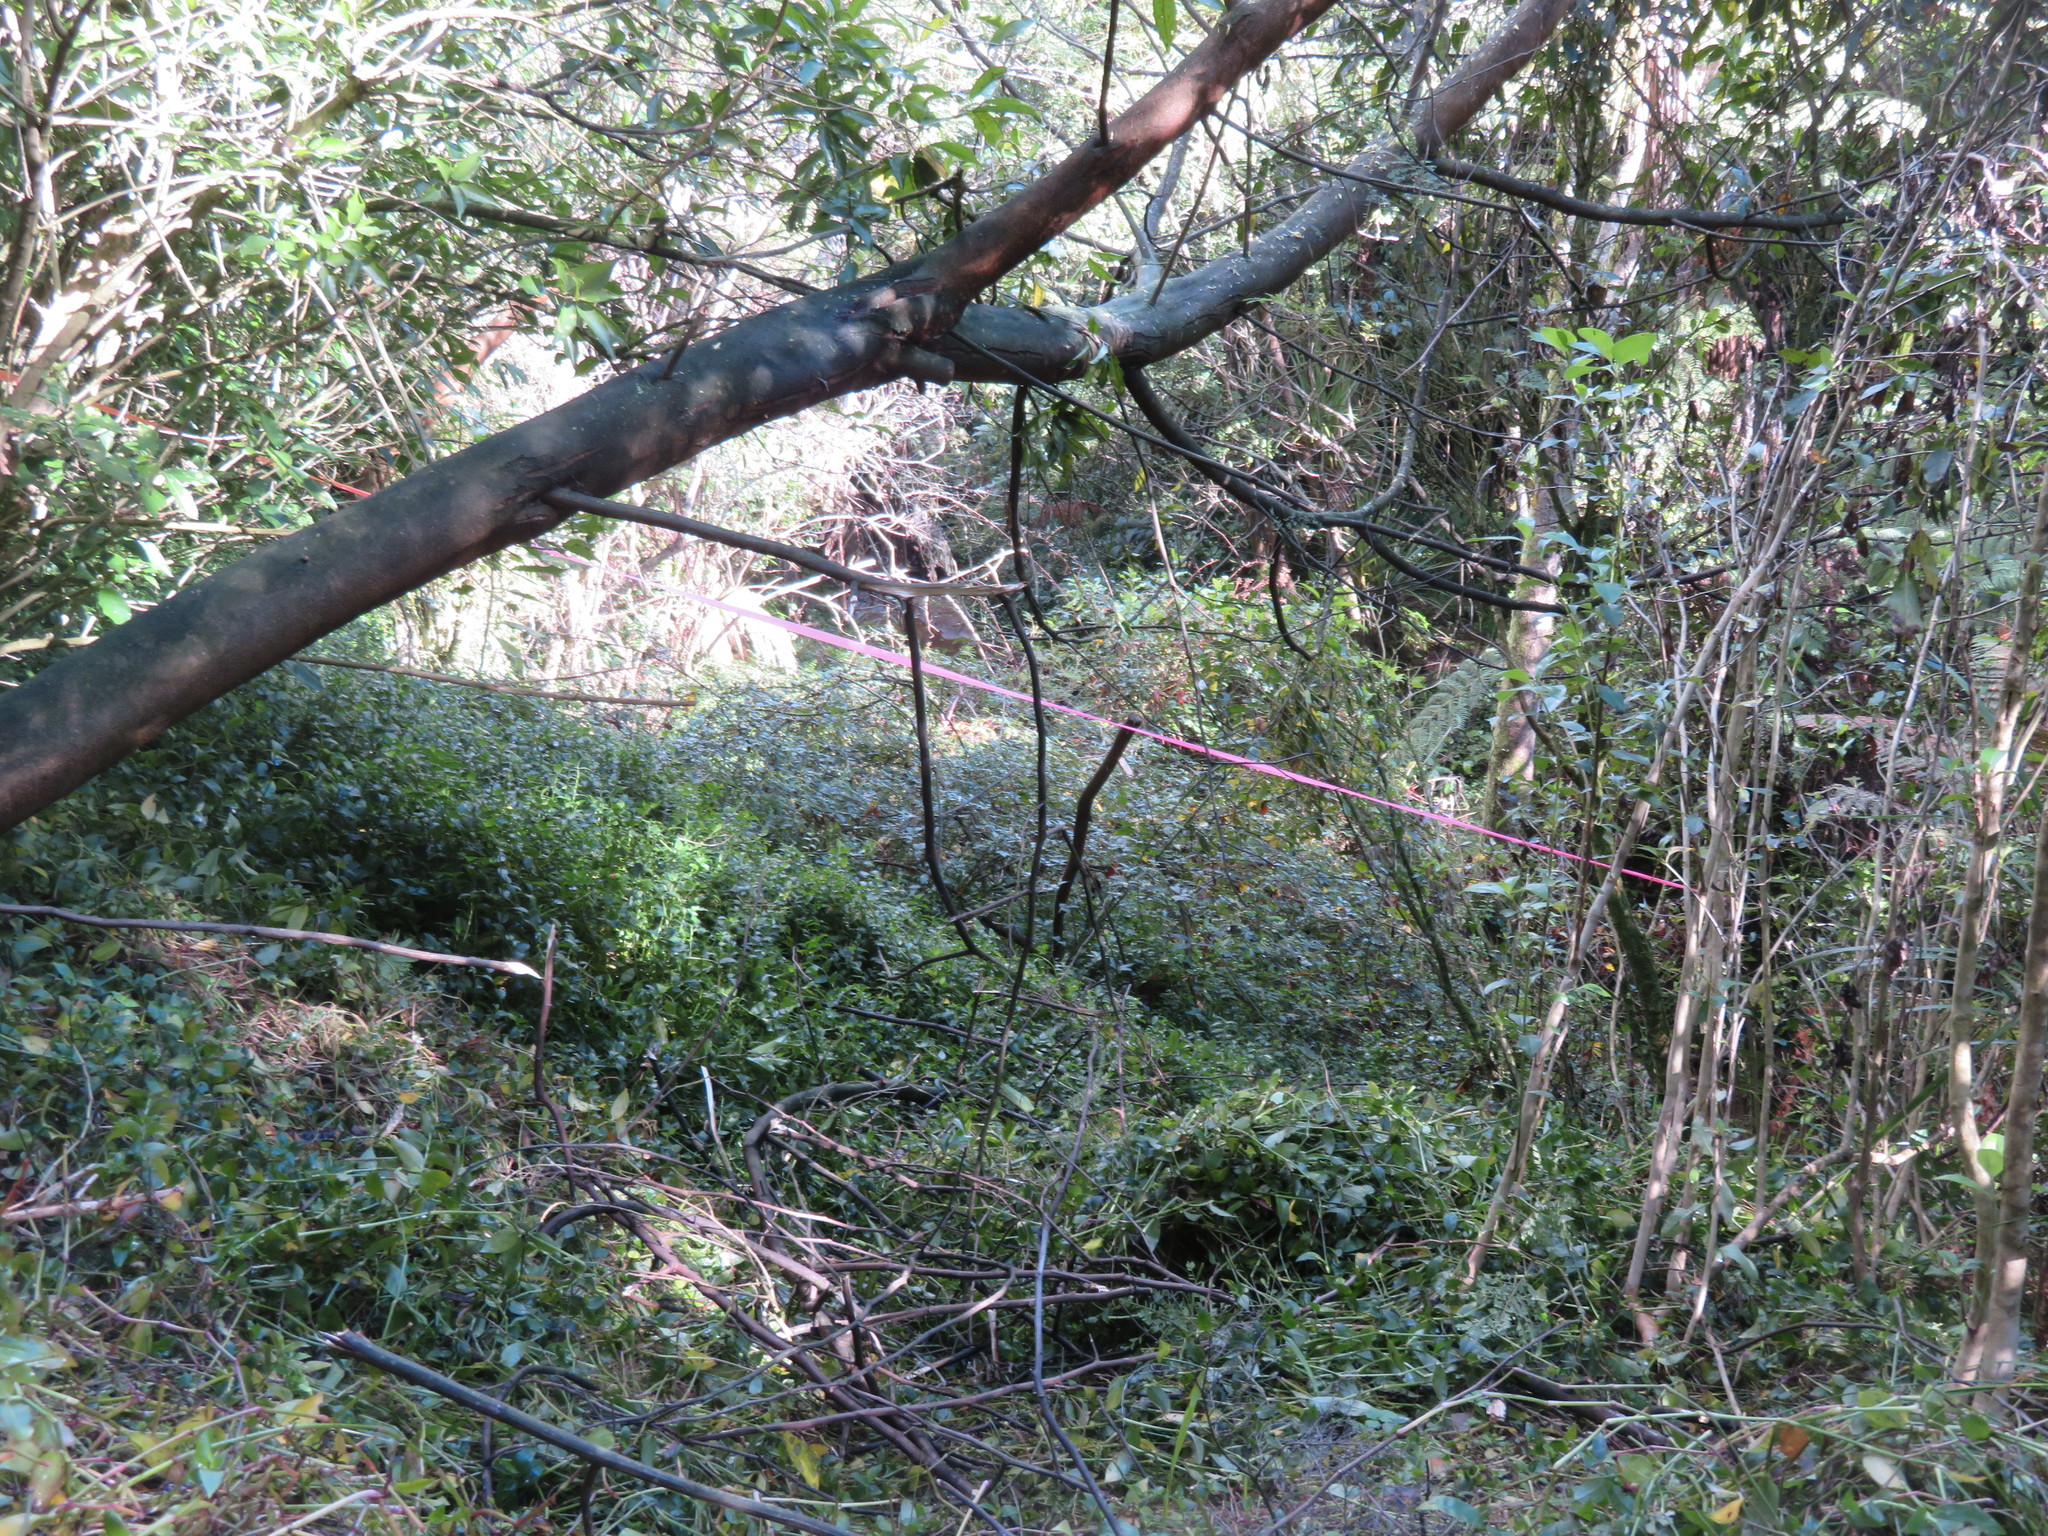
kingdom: Plantae
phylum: Tracheophyta
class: Liliopsida
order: Commelinales
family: Commelinaceae
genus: Tradescantia
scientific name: Tradescantia fluminensis
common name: Wandering-jew
